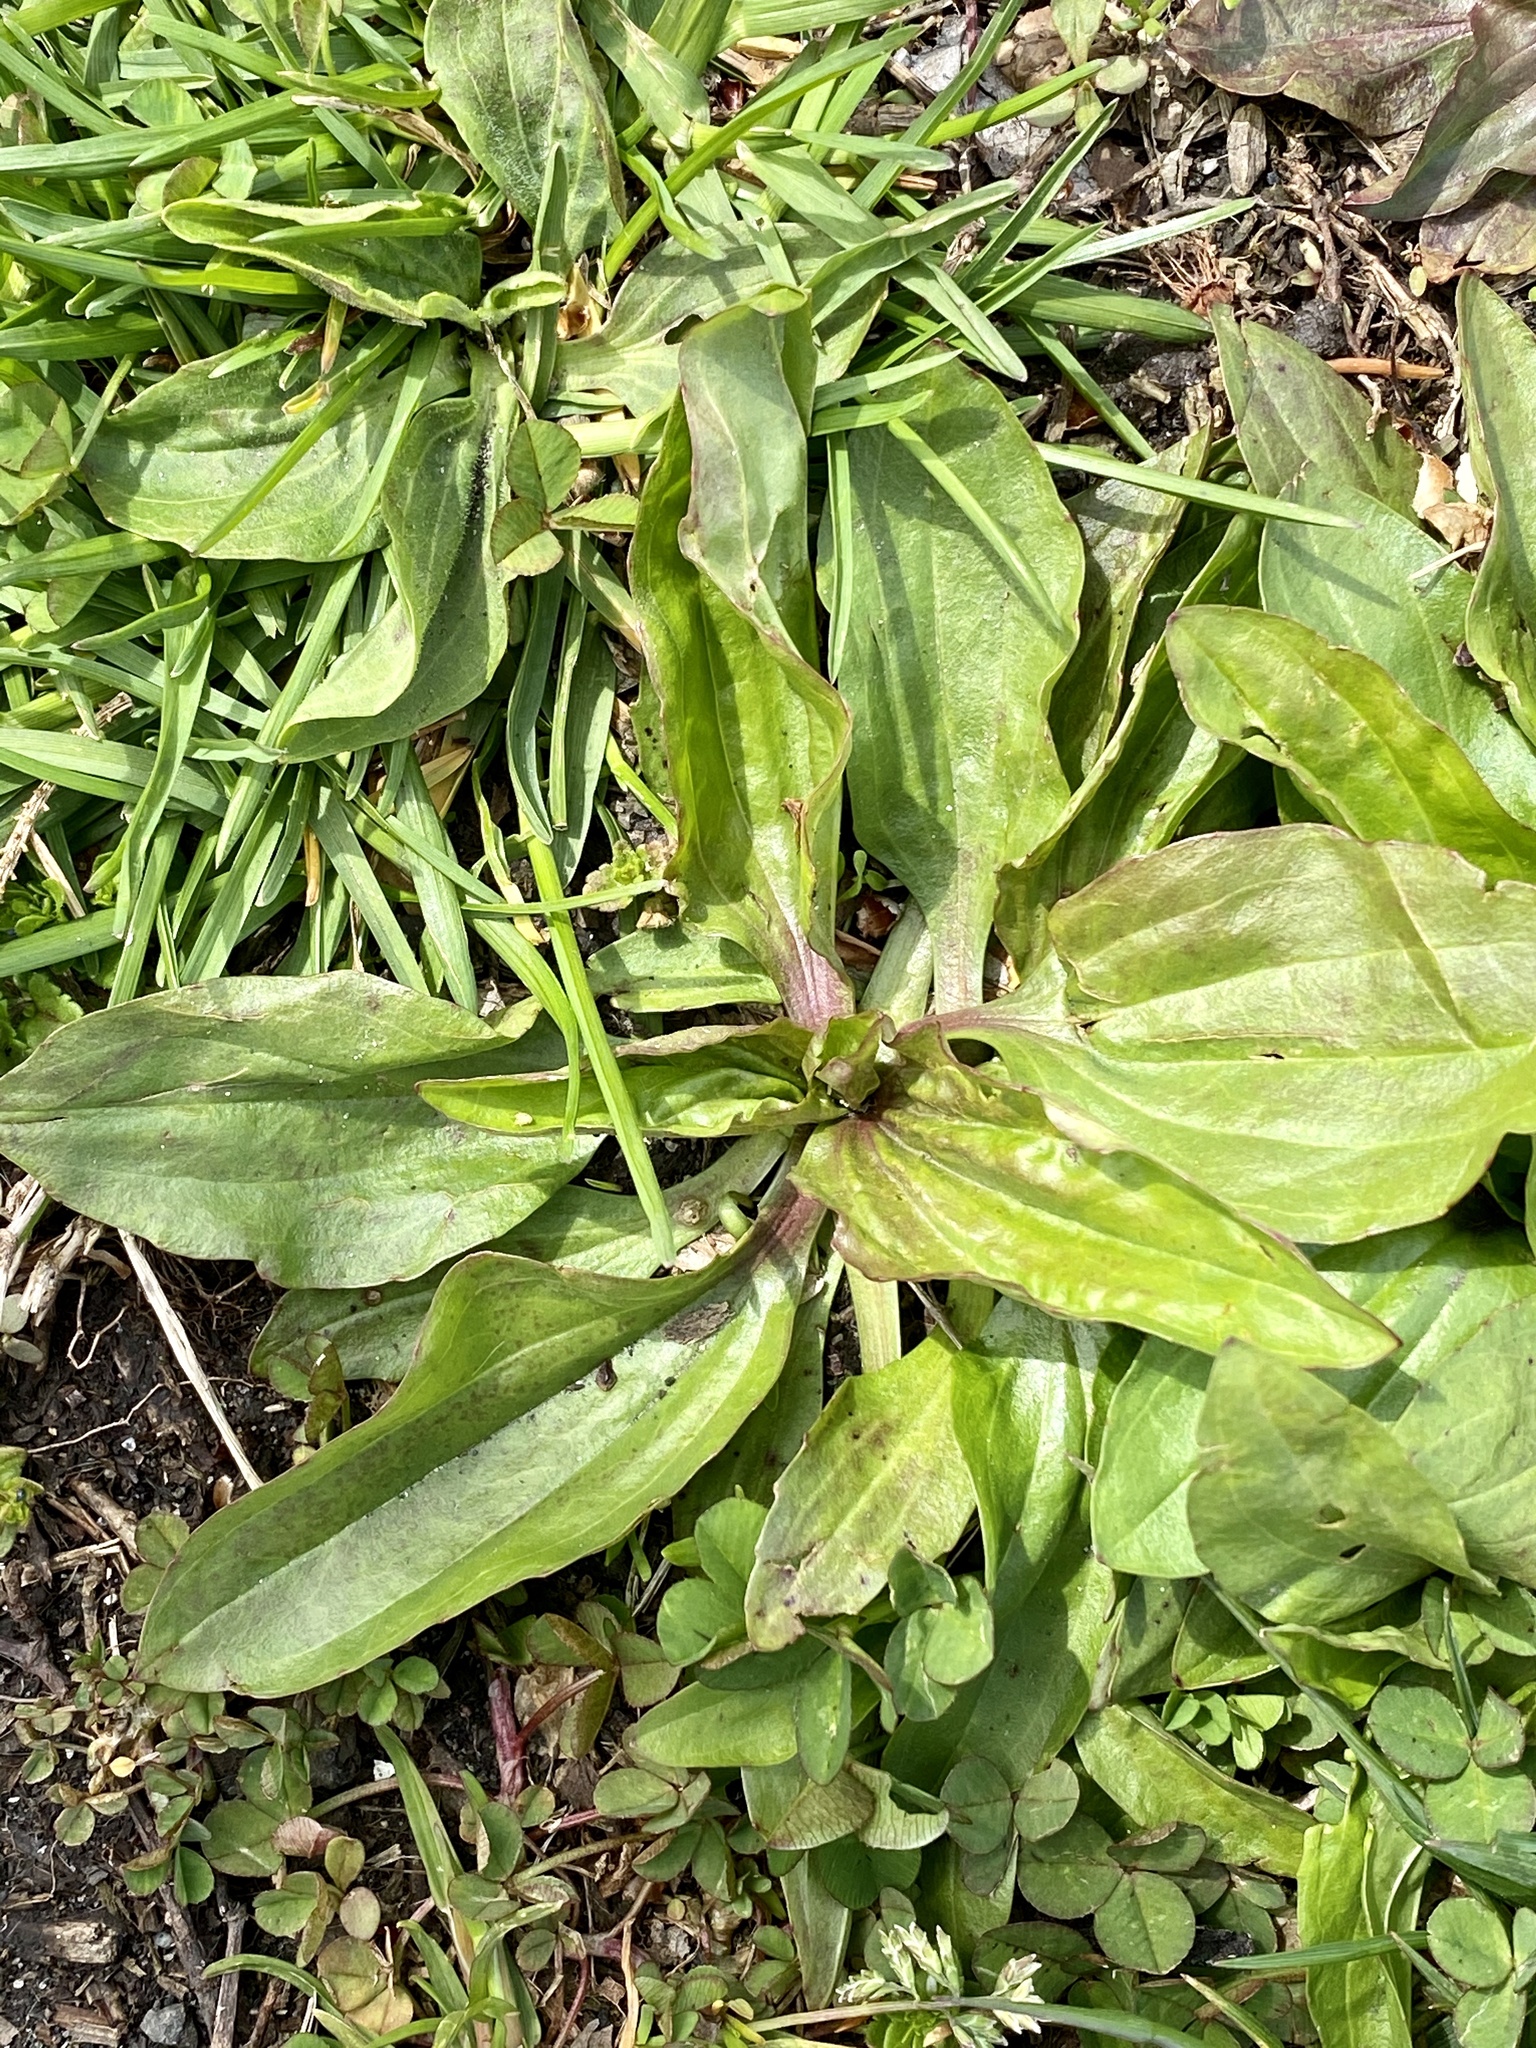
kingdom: Plantae
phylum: Tracheophyta
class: Magnoliopsida
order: Lamiales
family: Plantaginaceae
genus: Plantago
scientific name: Plantago rugelii
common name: American plantain
